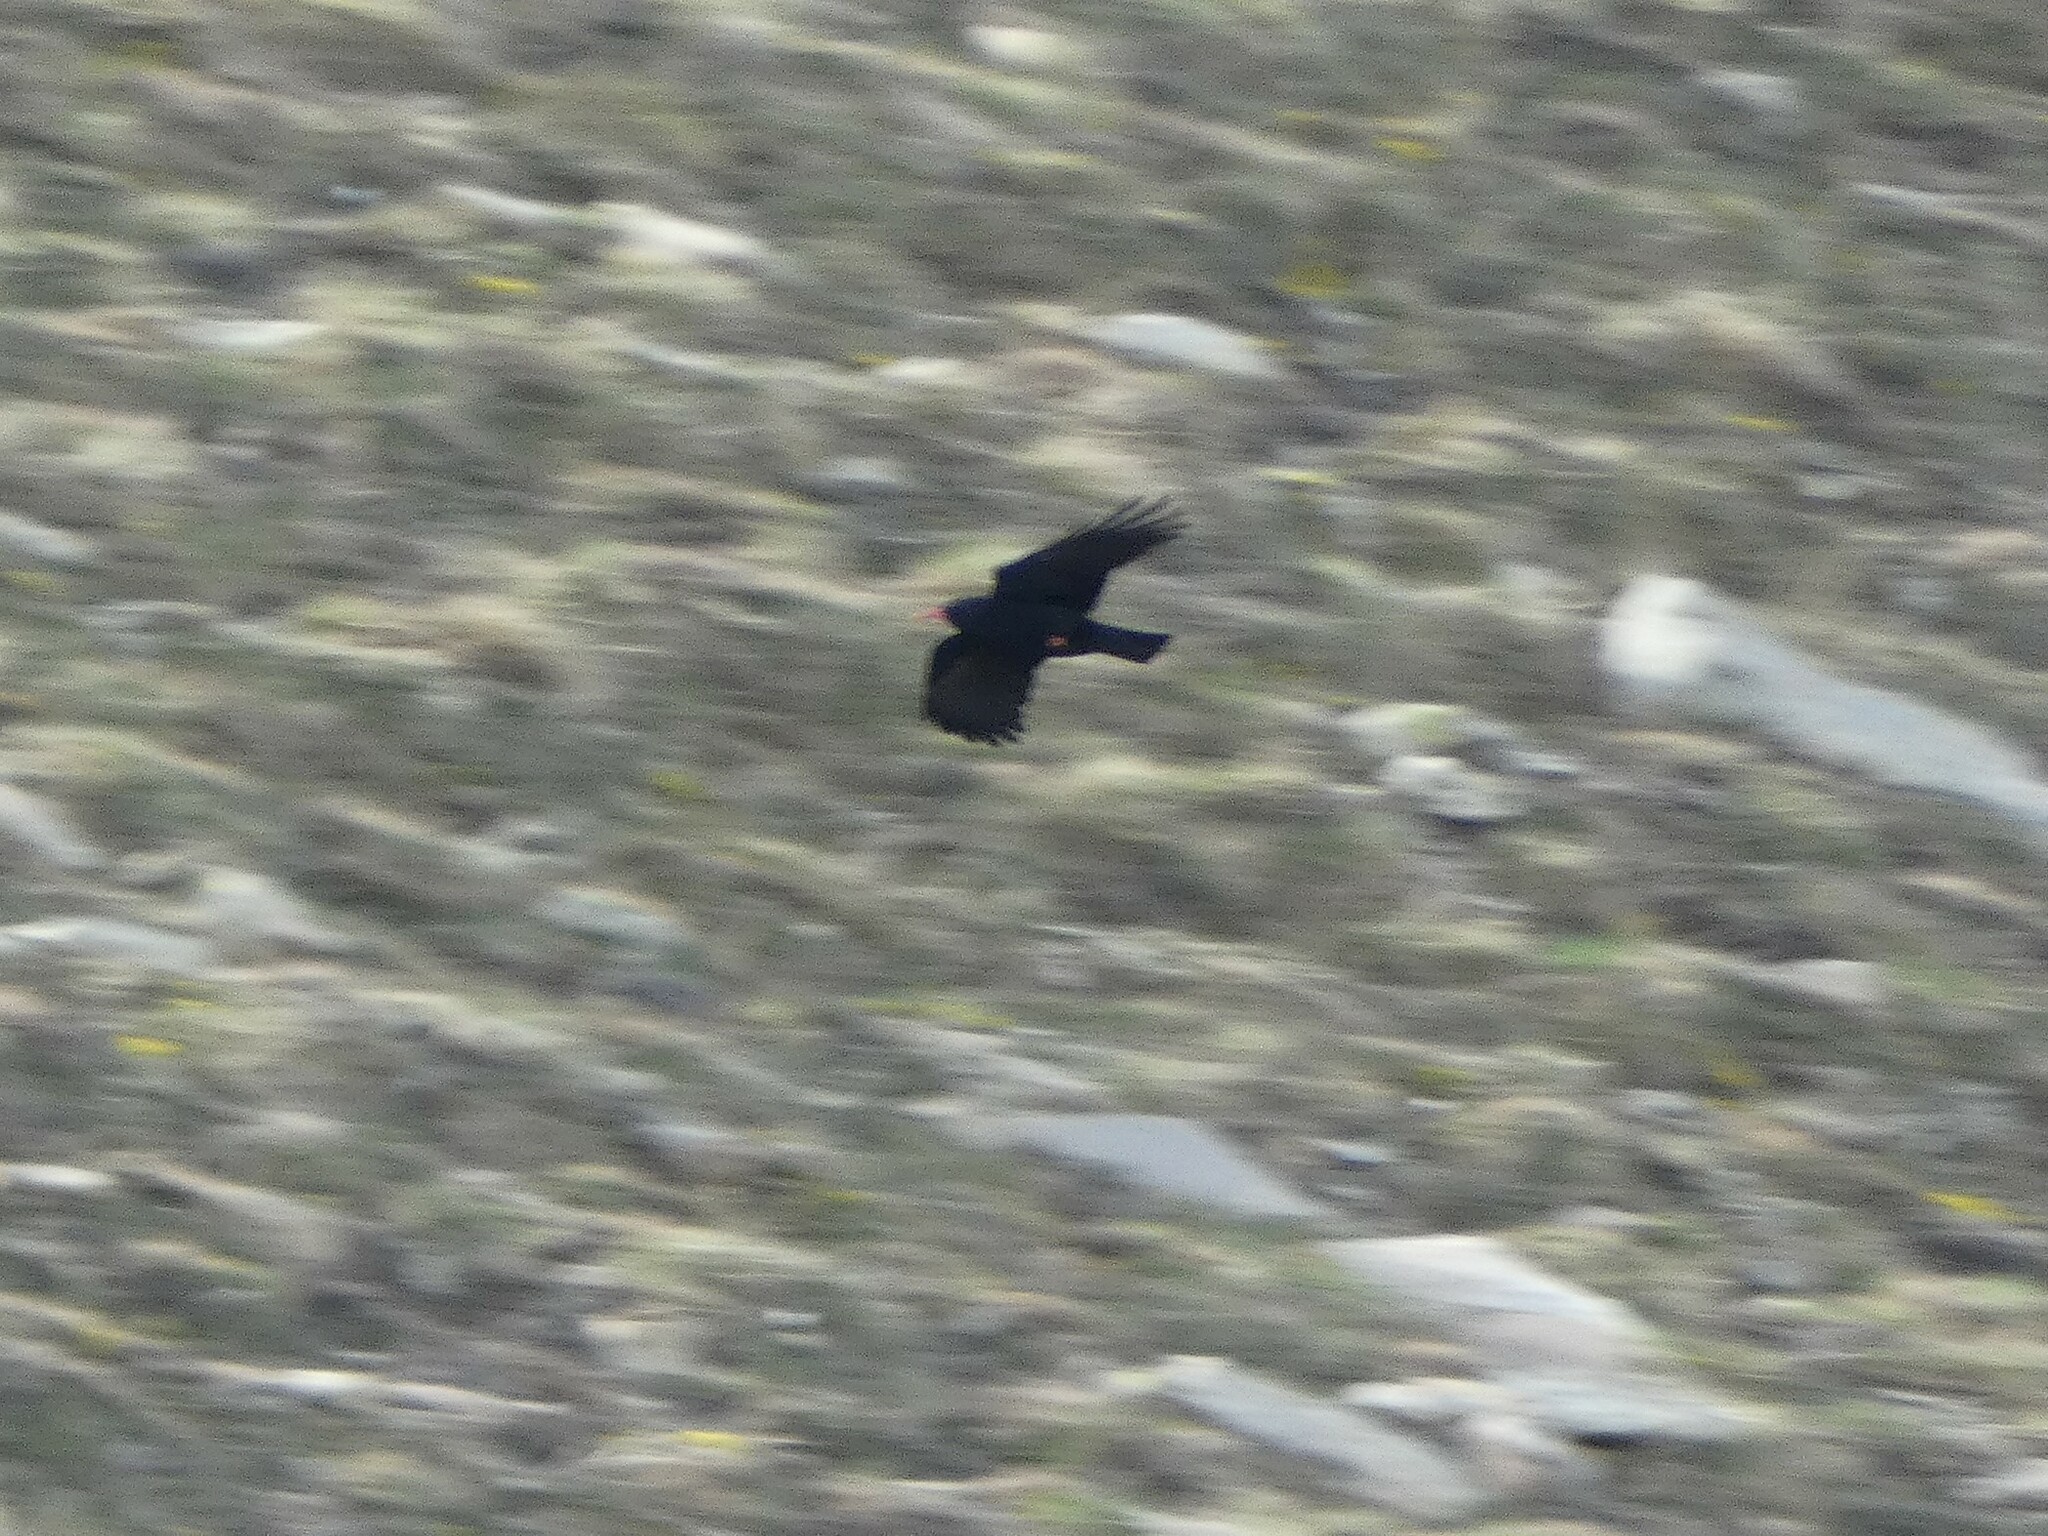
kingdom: Animalia
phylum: Chordata
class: Aves
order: Passeriformes
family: Corvidae
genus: Pyrrhocorax
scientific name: Pyrrhocorax pyrrhocorax
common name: Red-billed chough
